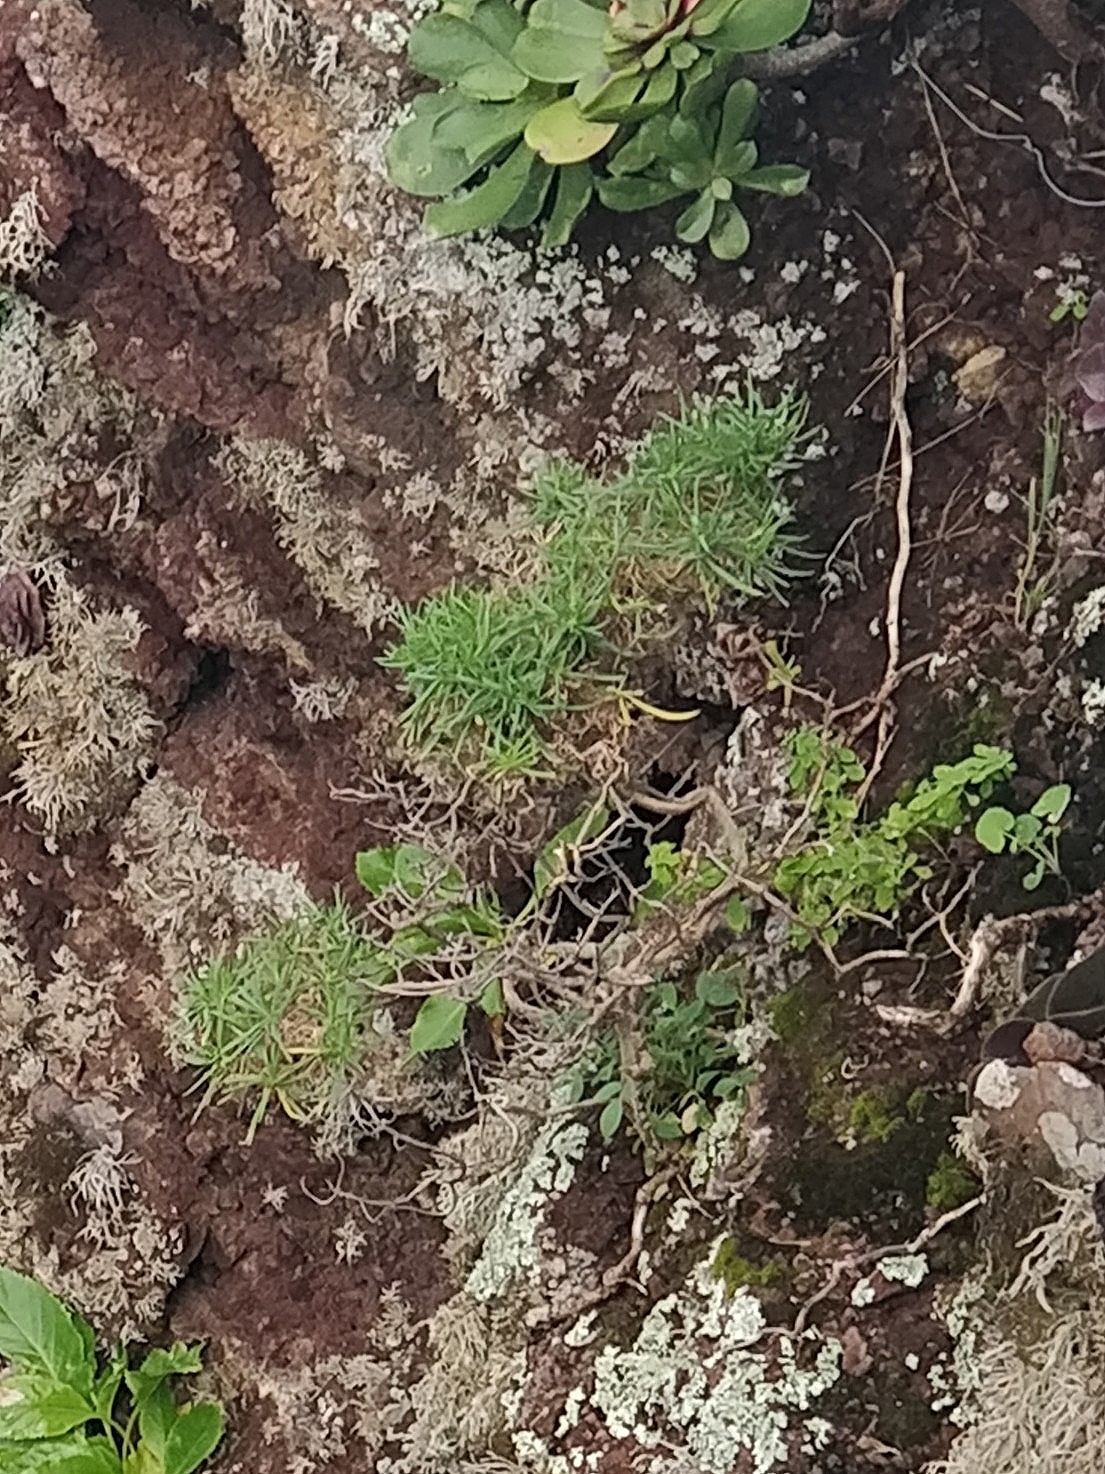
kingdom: Plantae
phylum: Tracheophyta
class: Magnoliopsida
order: Lamiales
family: Plantaginaceae
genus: Plantago
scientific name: Plantago arborescens
